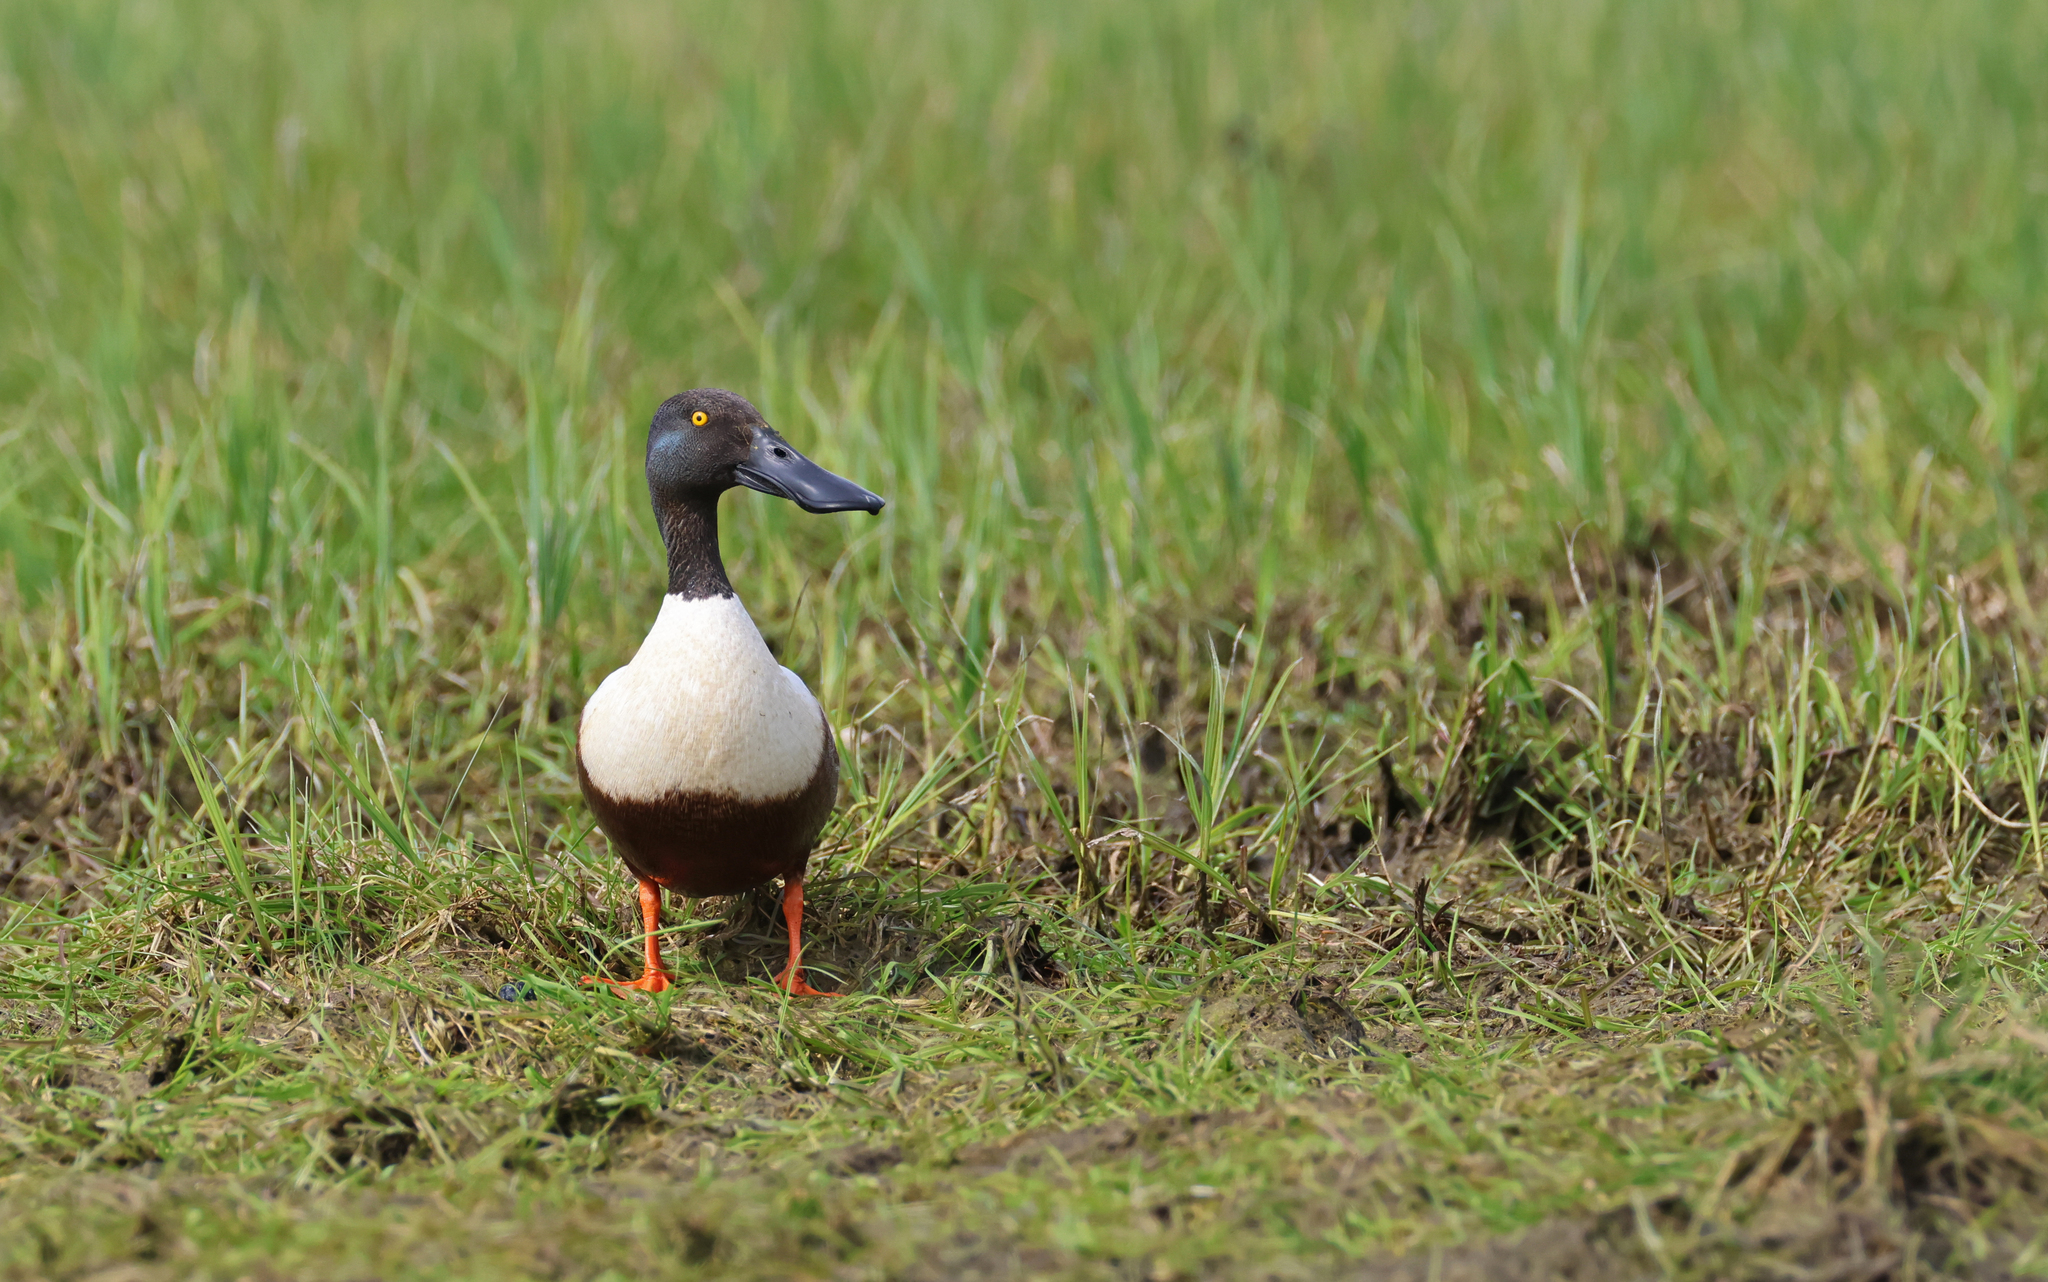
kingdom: Animalia
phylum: Chordata
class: Aves
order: Anseriformes
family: Anatidae
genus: Spatula
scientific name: Spatula clypeata
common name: Northern shoveler
